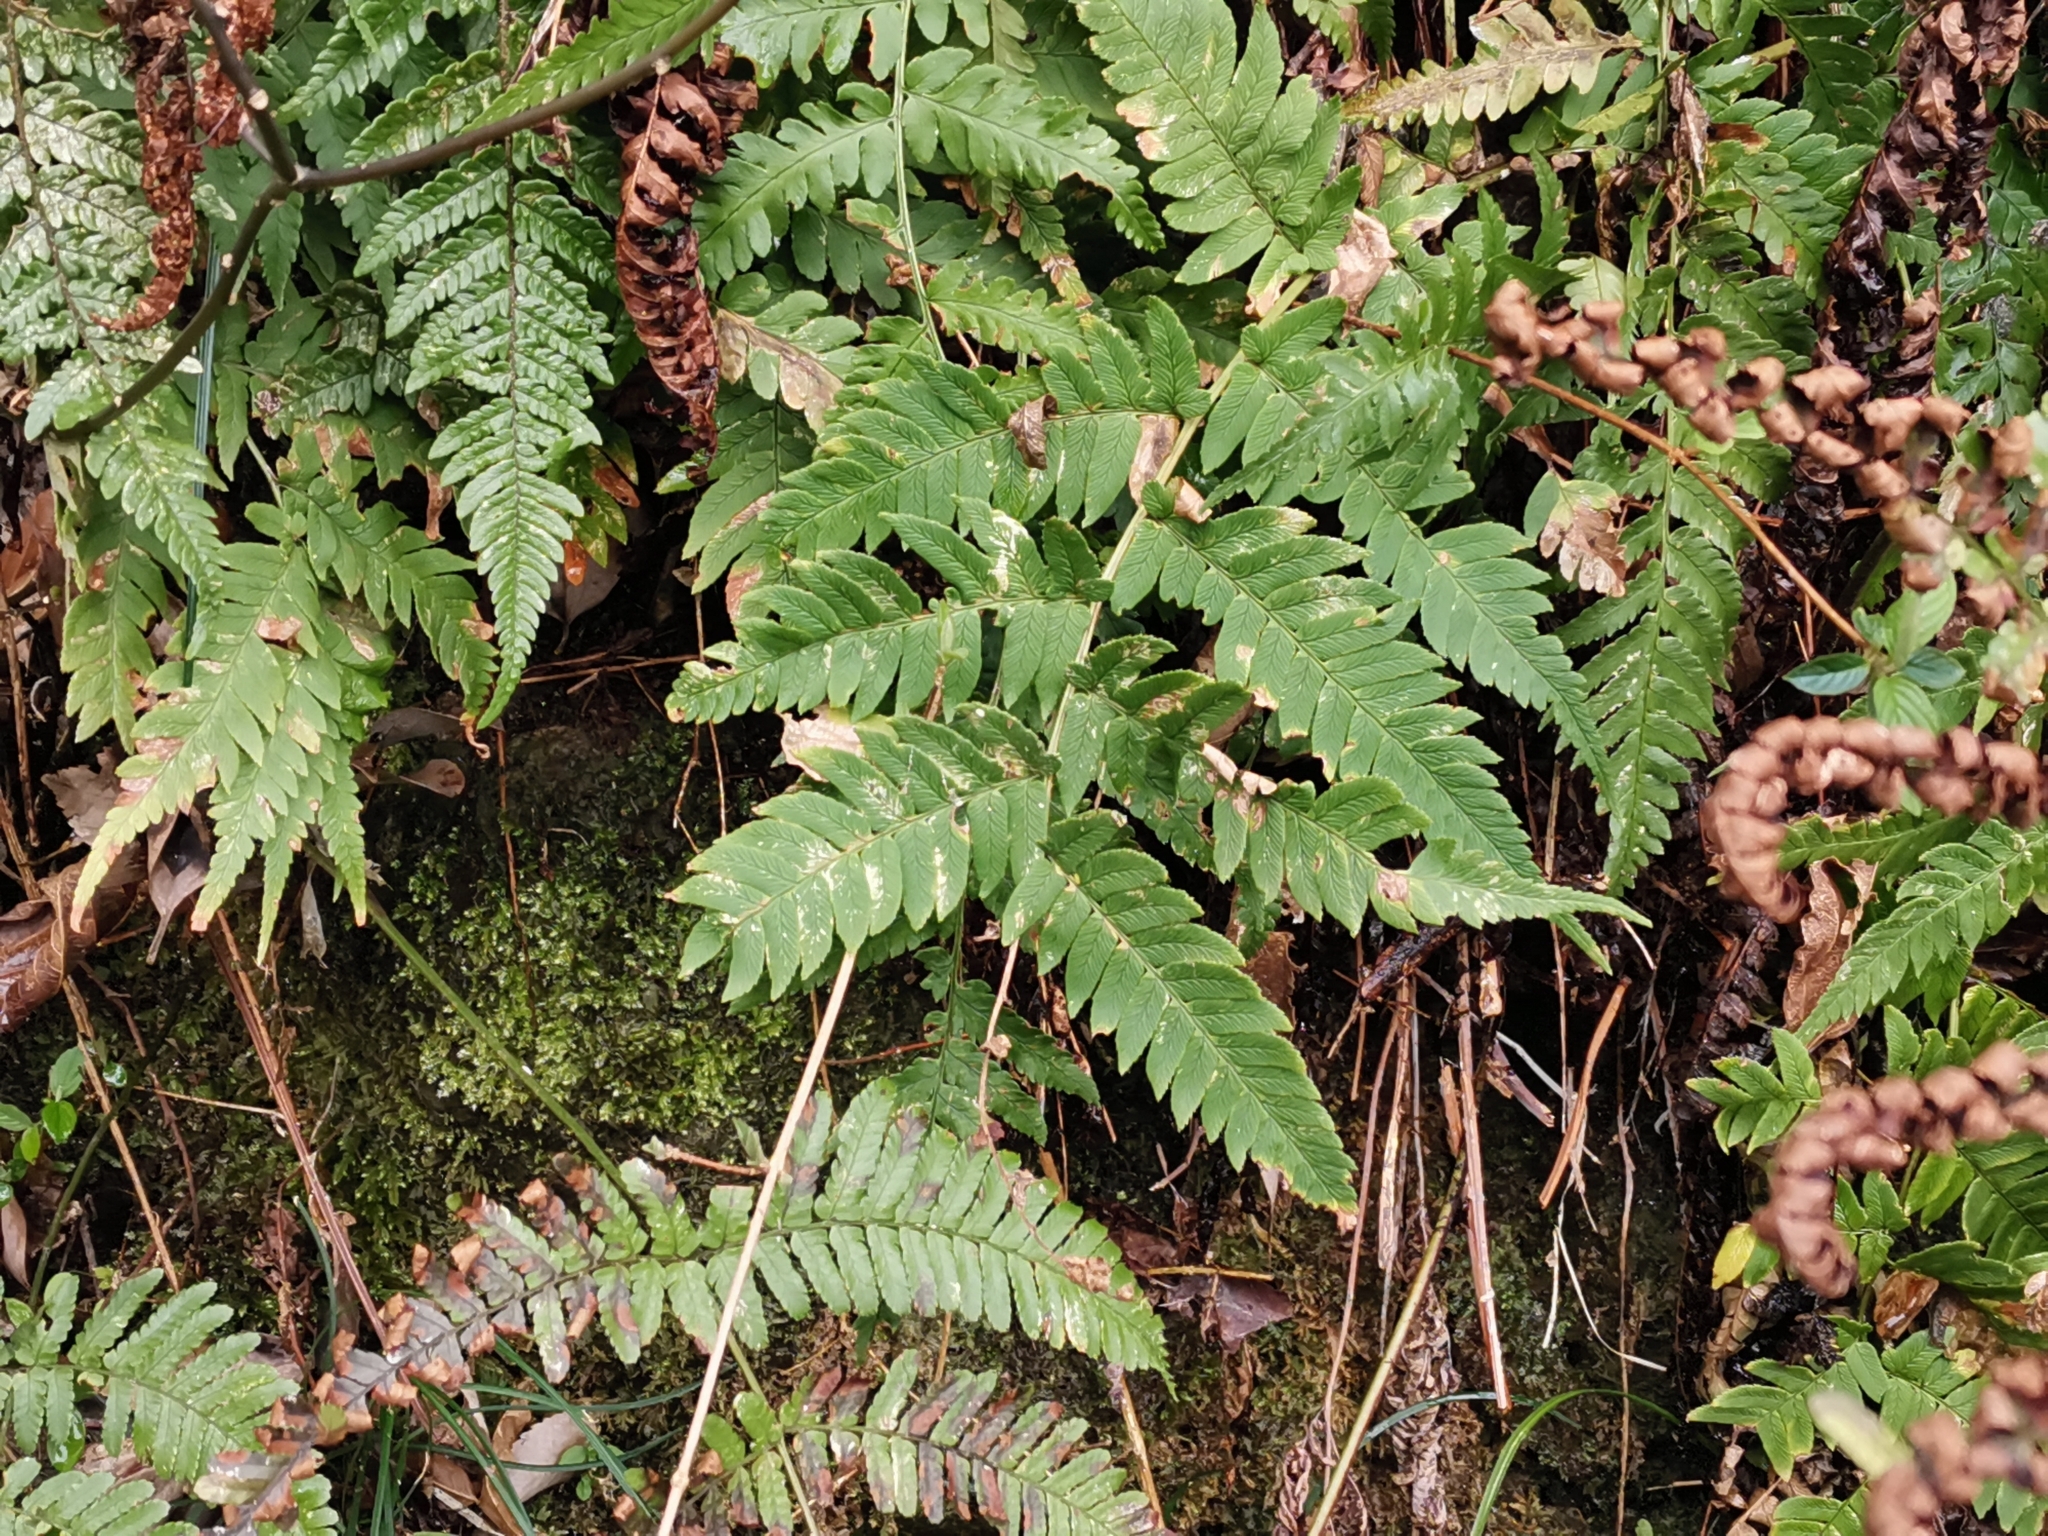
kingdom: Plantae
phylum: Tracheophyta
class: Polypodiopsida
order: Polypodiales
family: Dryopteridaceae
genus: Dryopteris
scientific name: Dryopteris lacera
